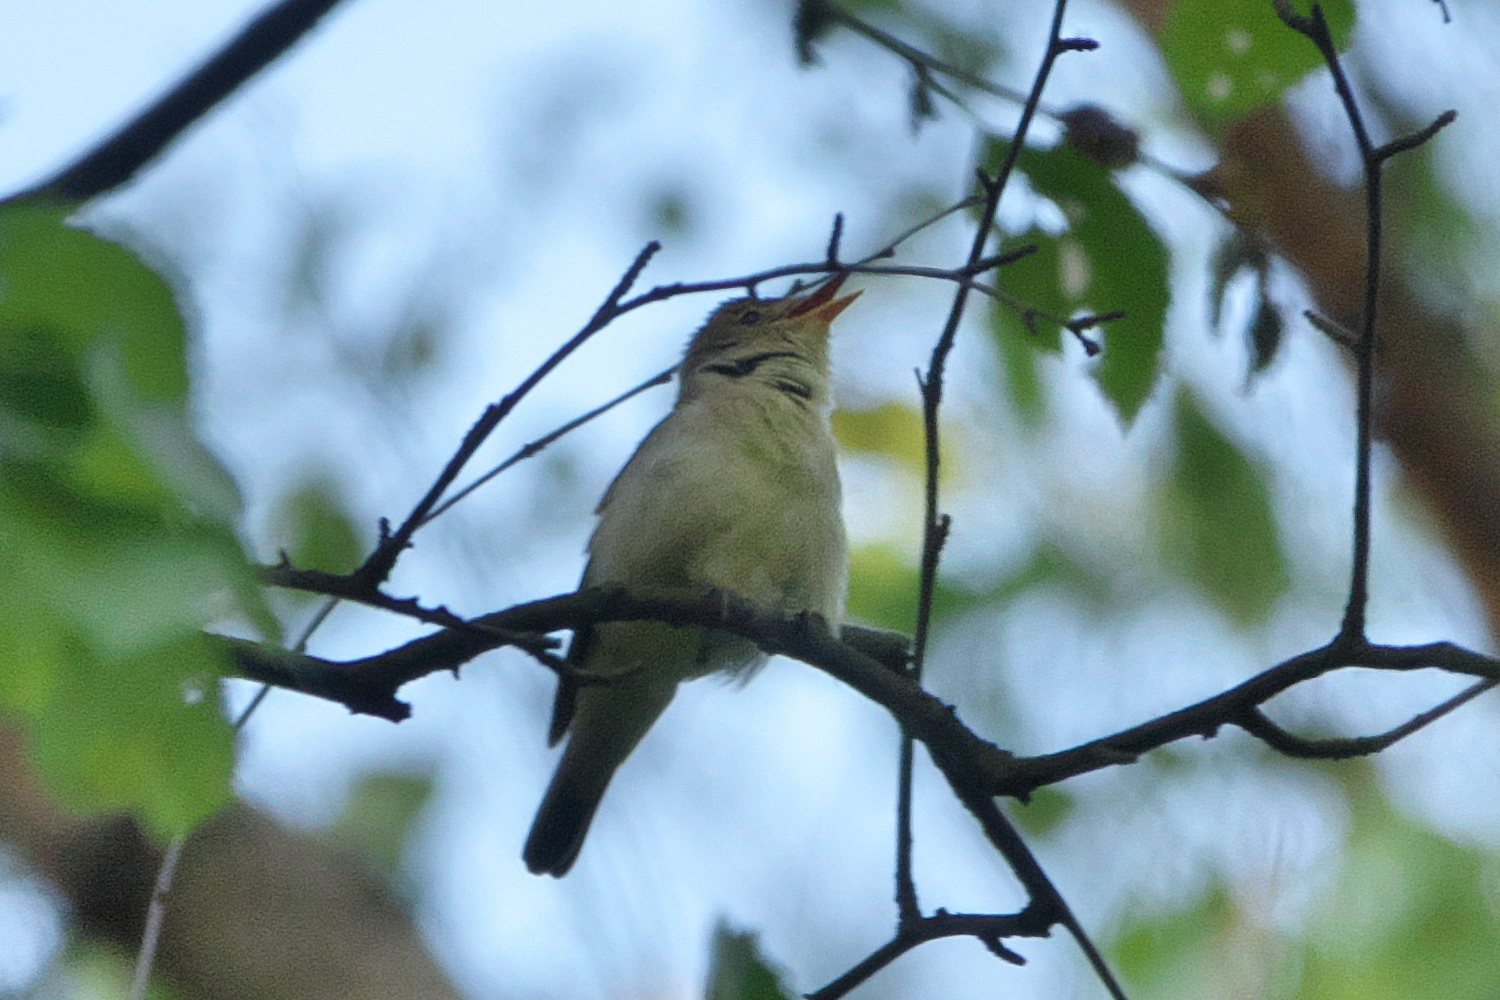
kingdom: Animalia
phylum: Chordata
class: Aves
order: Passeriformes
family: Acrocephalidae
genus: Hippolais
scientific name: Hippolais icterina
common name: Icterine warbler
